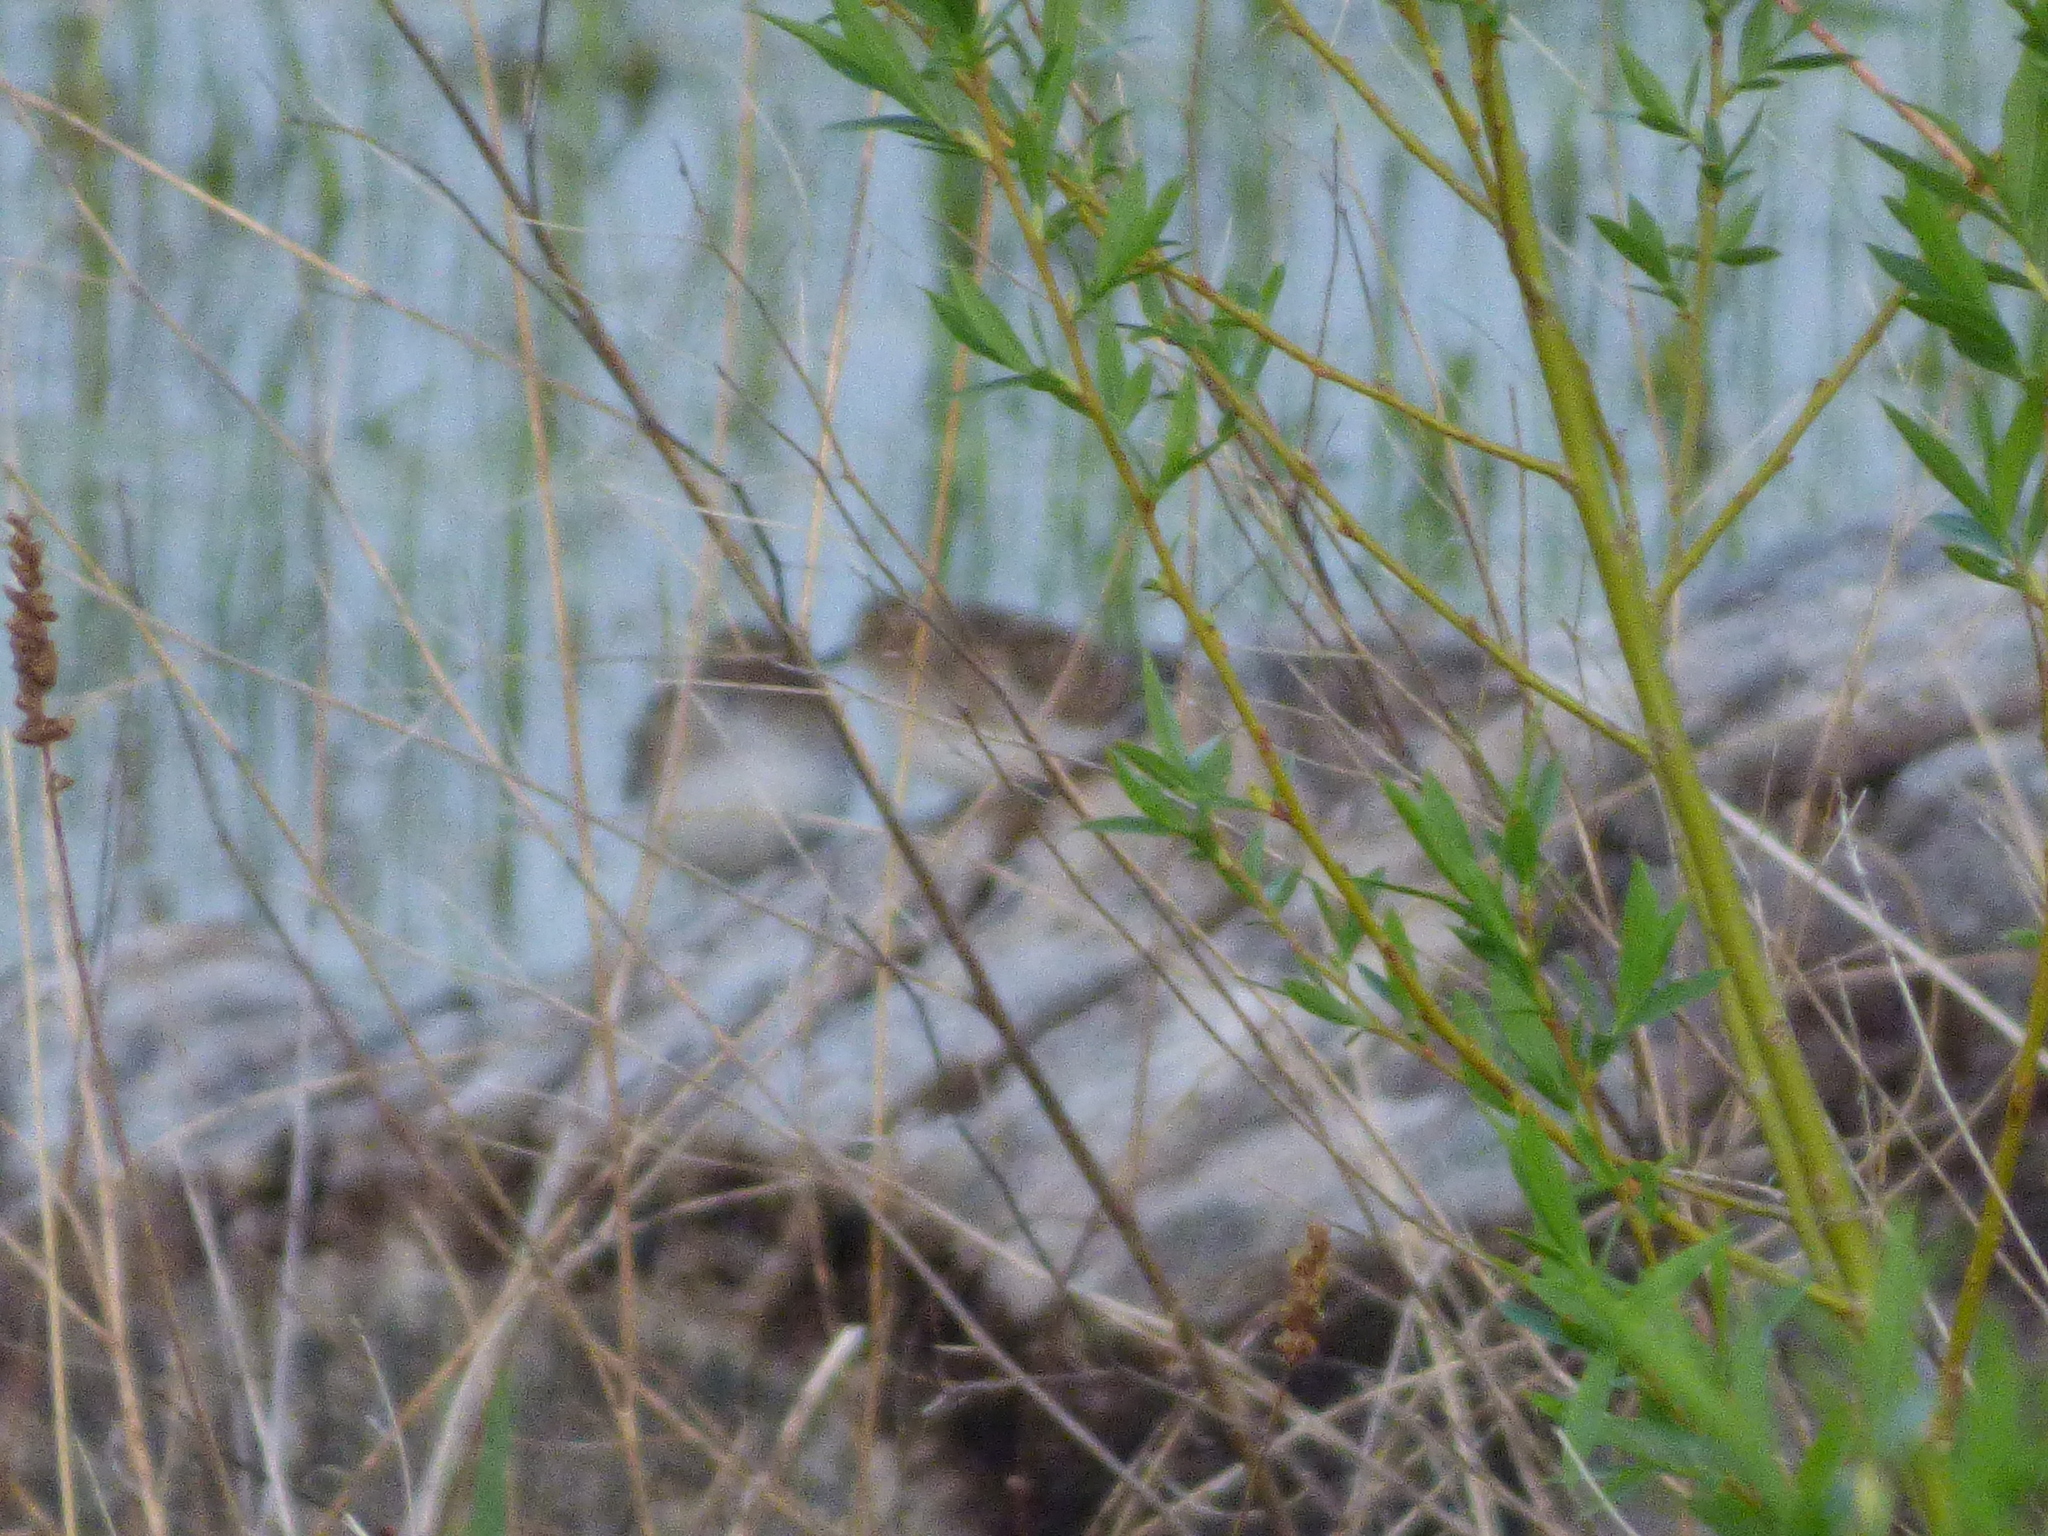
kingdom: Animalia
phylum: Chordata
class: Aves
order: Charadriiformes
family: Scolopacidae
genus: Calidris
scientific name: Calidris minutilla
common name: Least sandpiper
